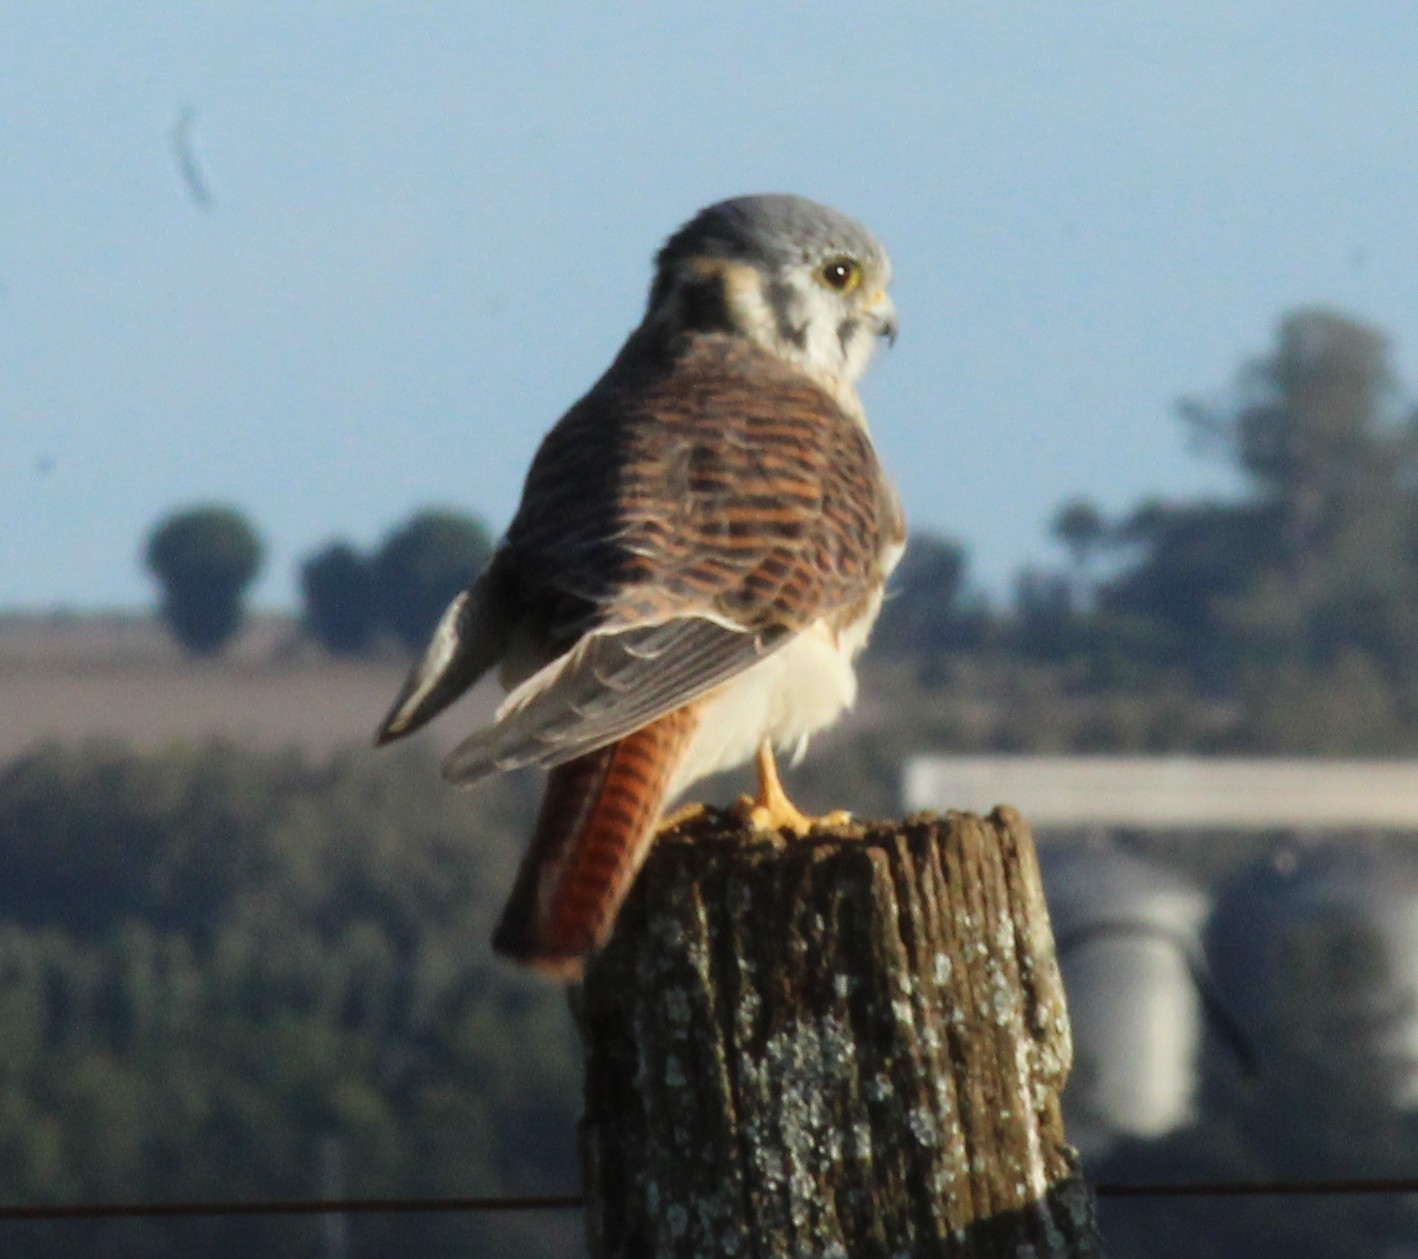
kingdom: Animalia
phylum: Chordata
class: Aves
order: Falconiformes
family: Falconidae
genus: Falco
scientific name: Falco sparverius
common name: American kestrel
